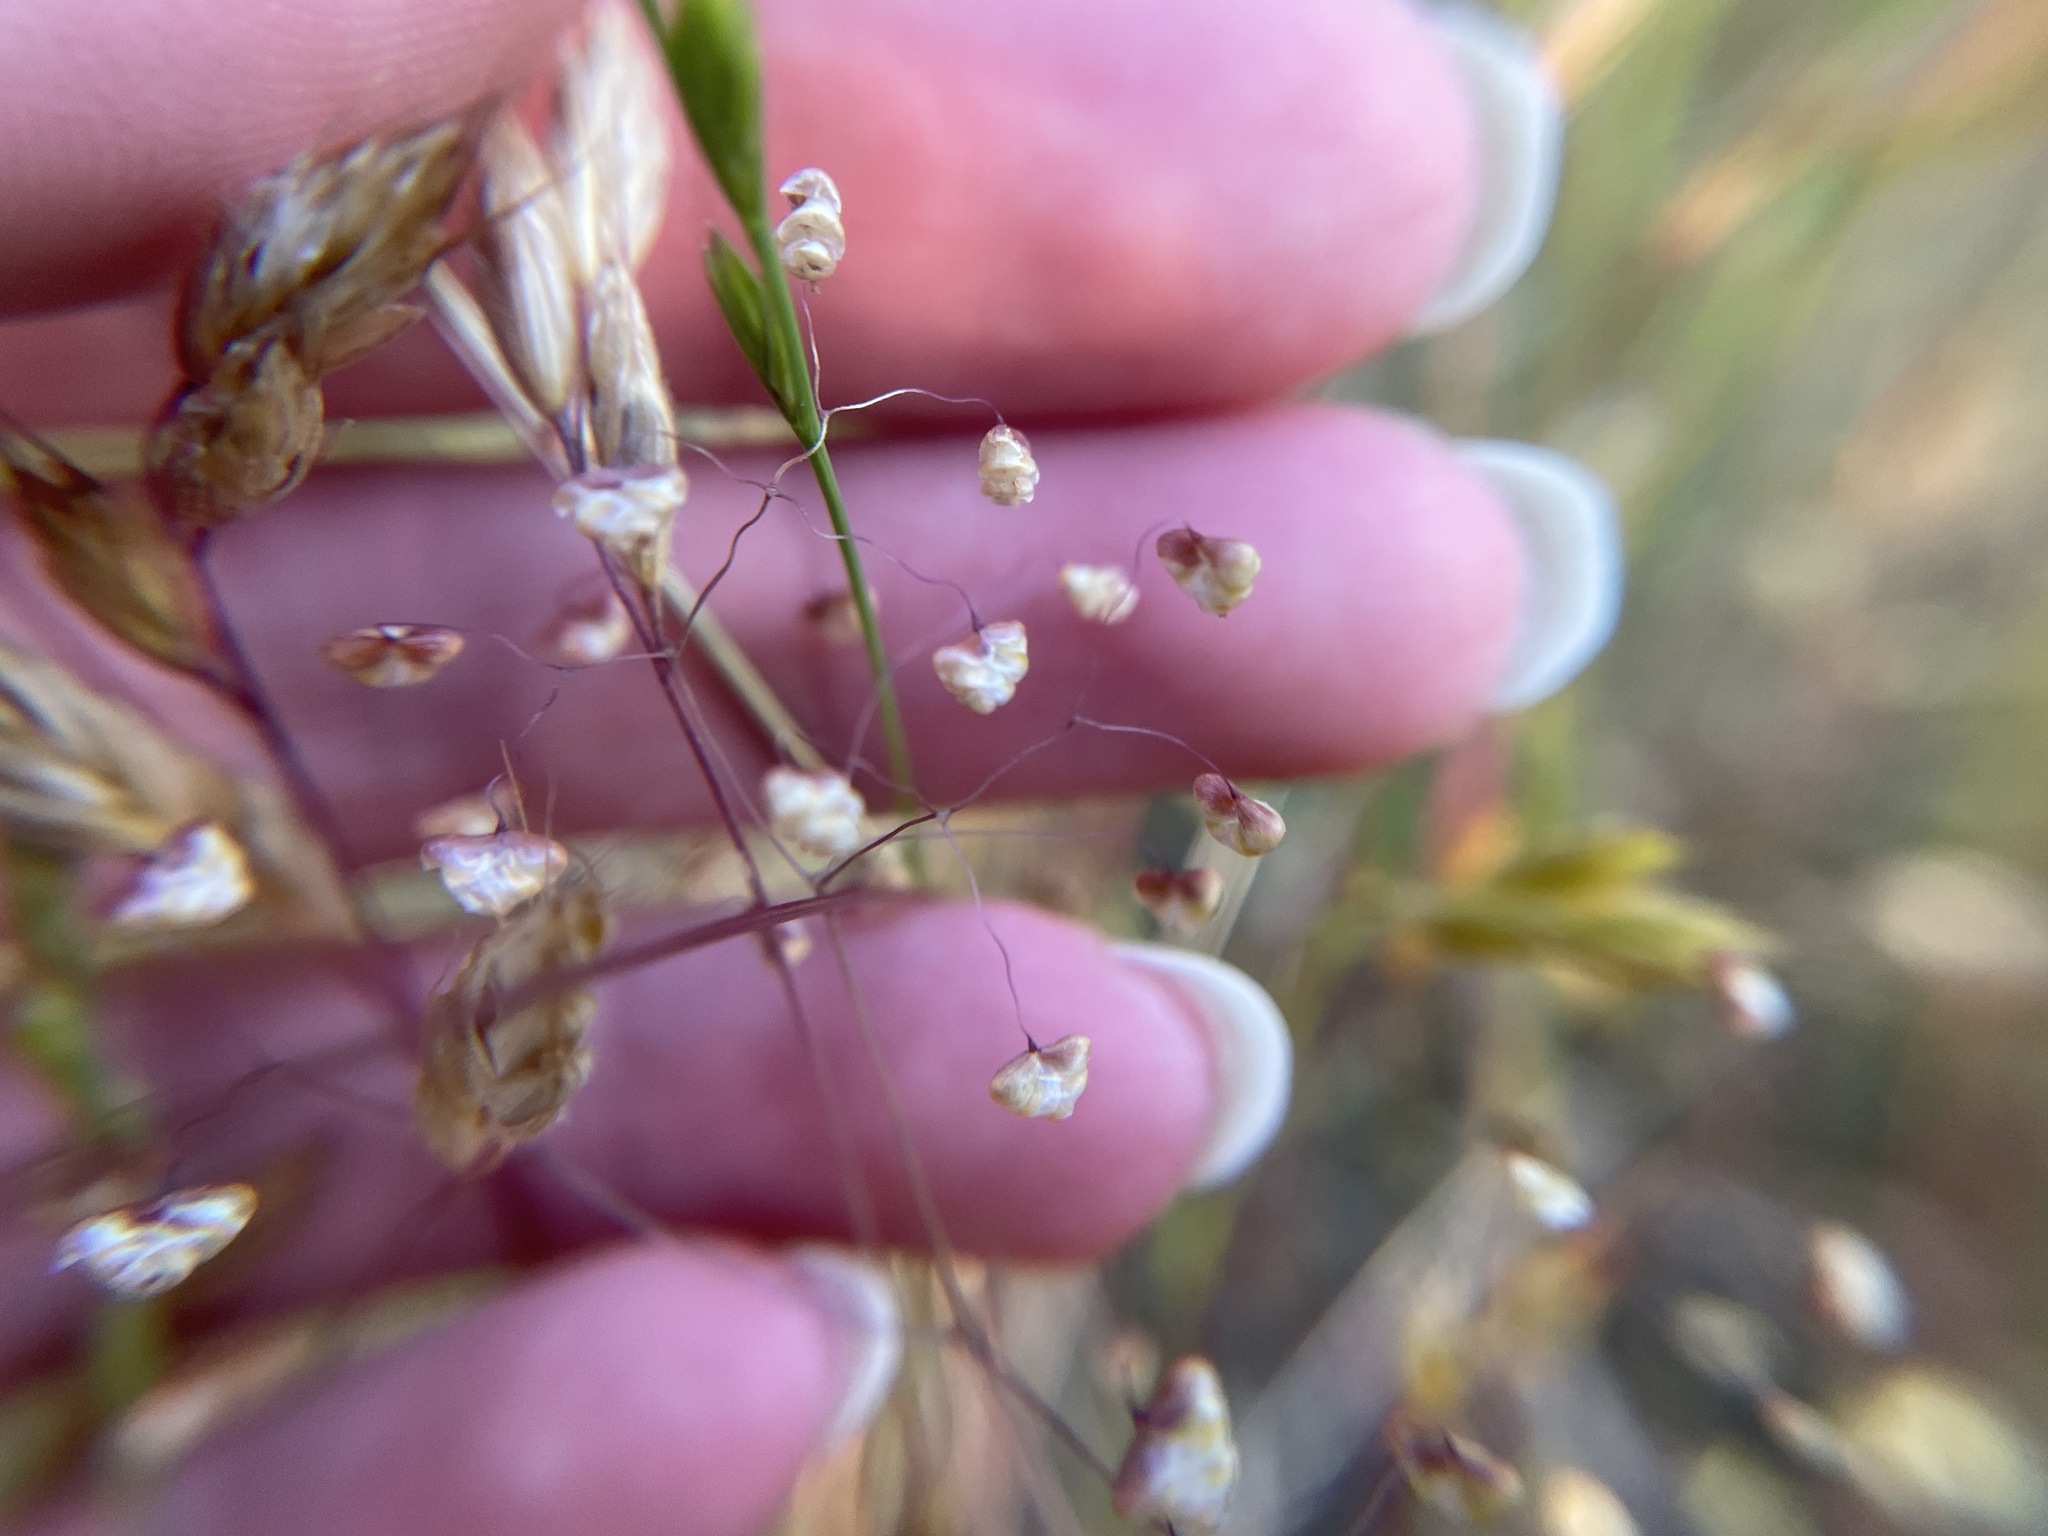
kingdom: Plantae
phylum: Tracheophyta
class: Liliopsida
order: Poales
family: Poaceae
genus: Briza
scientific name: Briza minor
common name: Lesser quaking-grass
